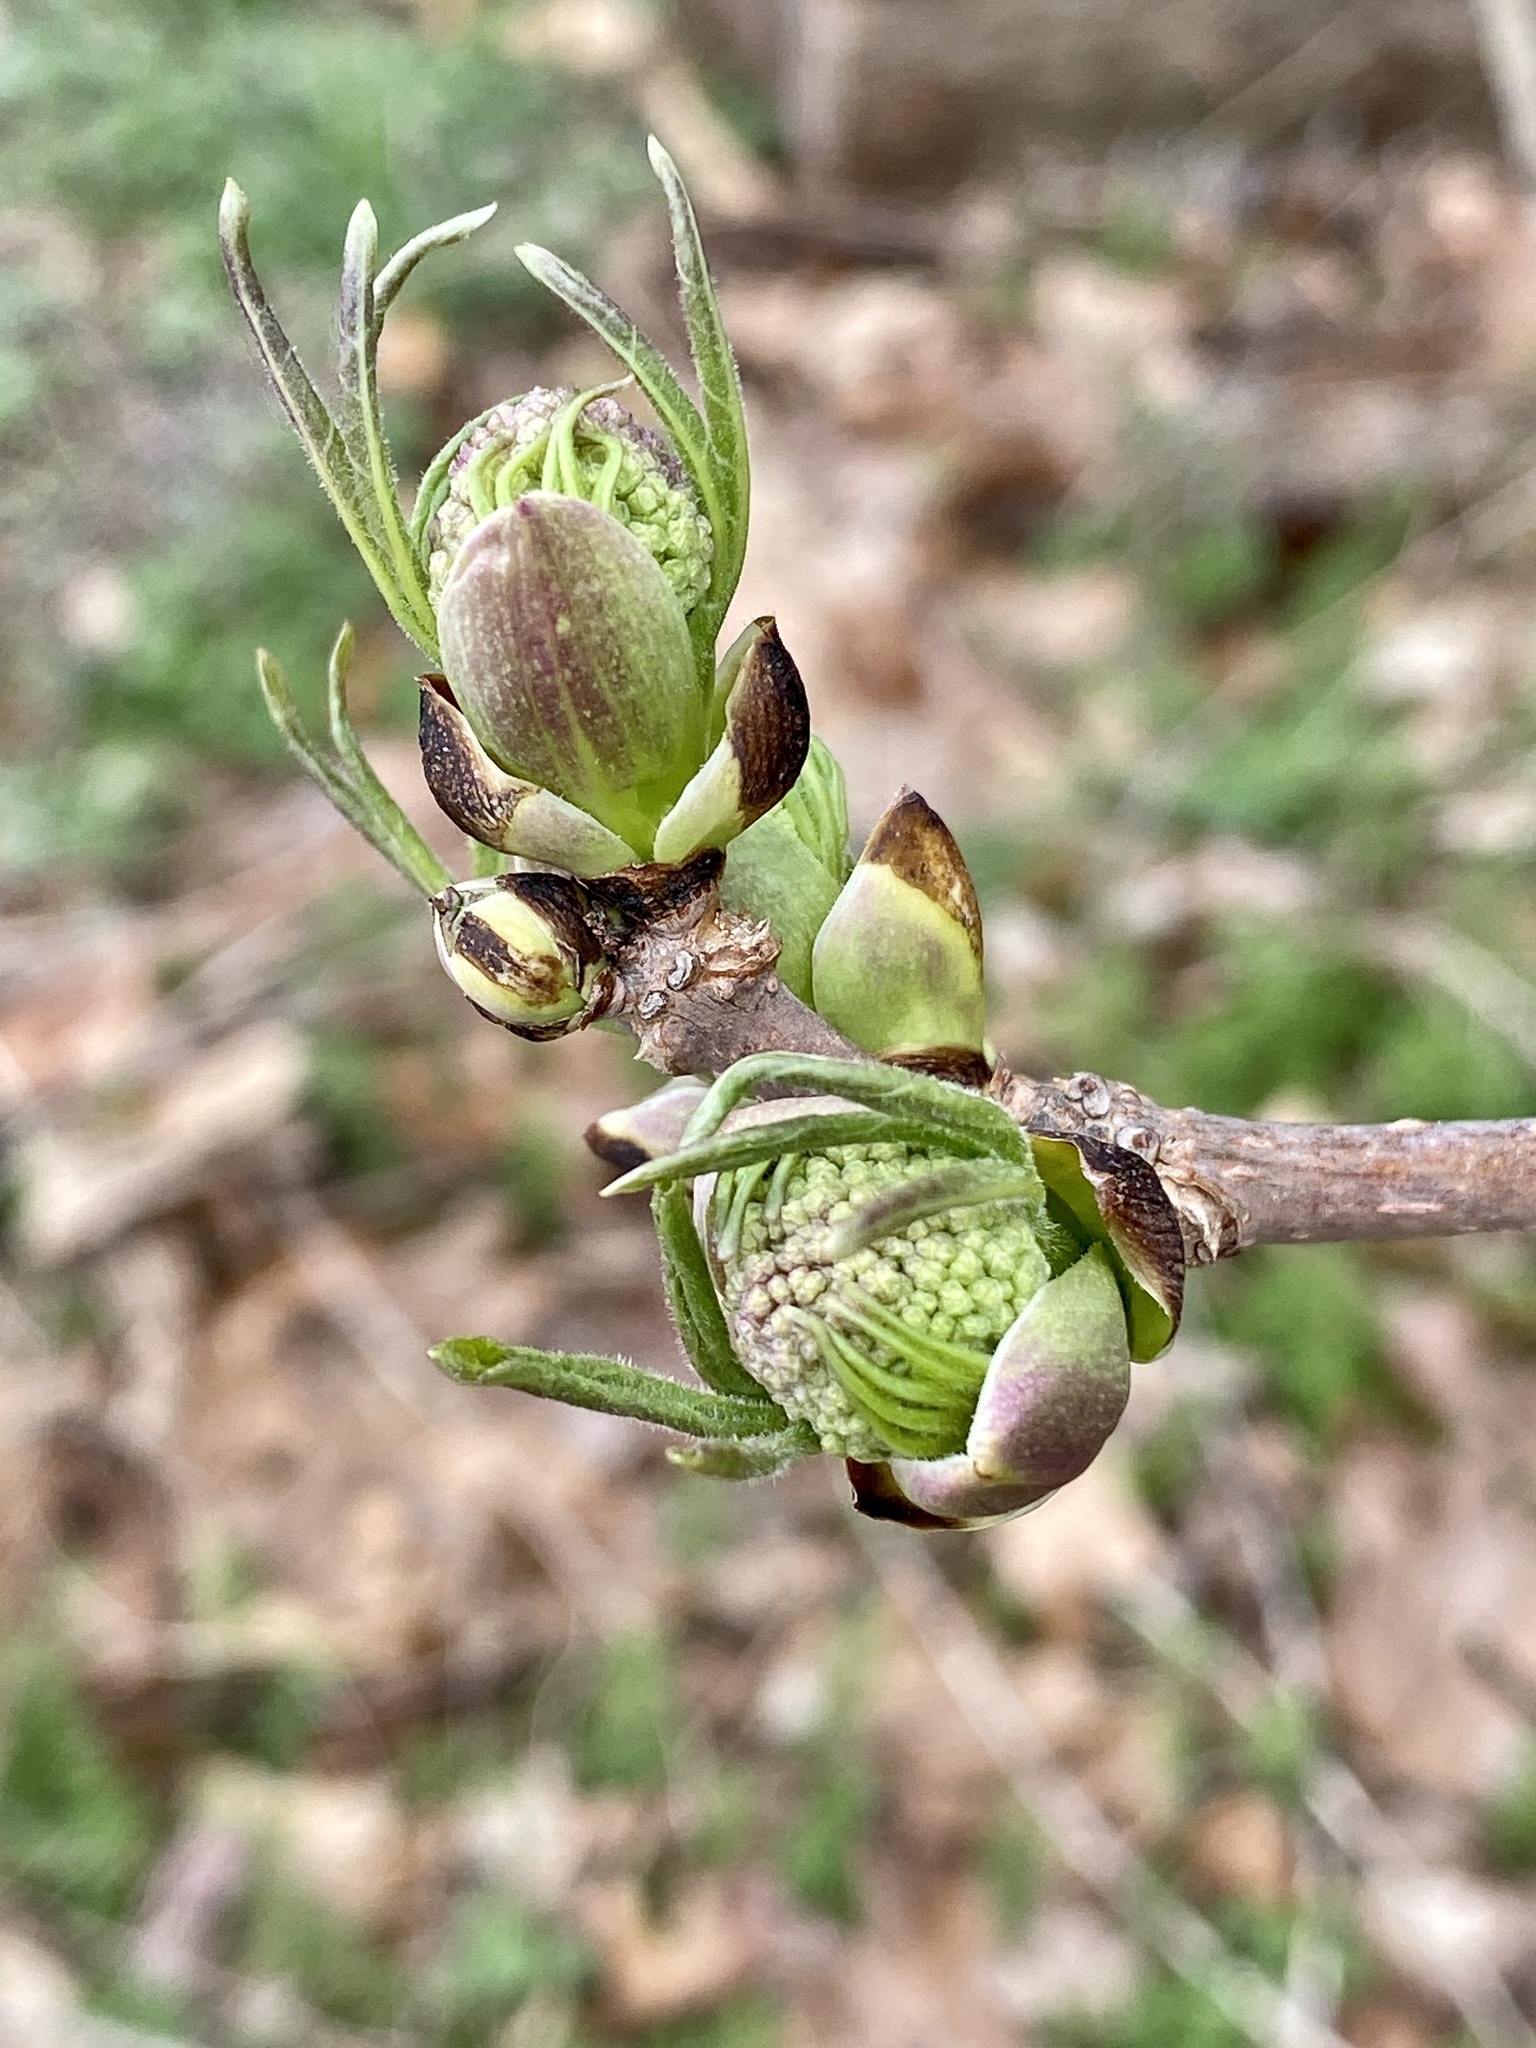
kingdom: Plantae
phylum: Tracheophyta
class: Magnoliopsida
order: Dipsacales
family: Viburnaceae
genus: Sambucus
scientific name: Sambucus racemosa
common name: Red-berried elder
